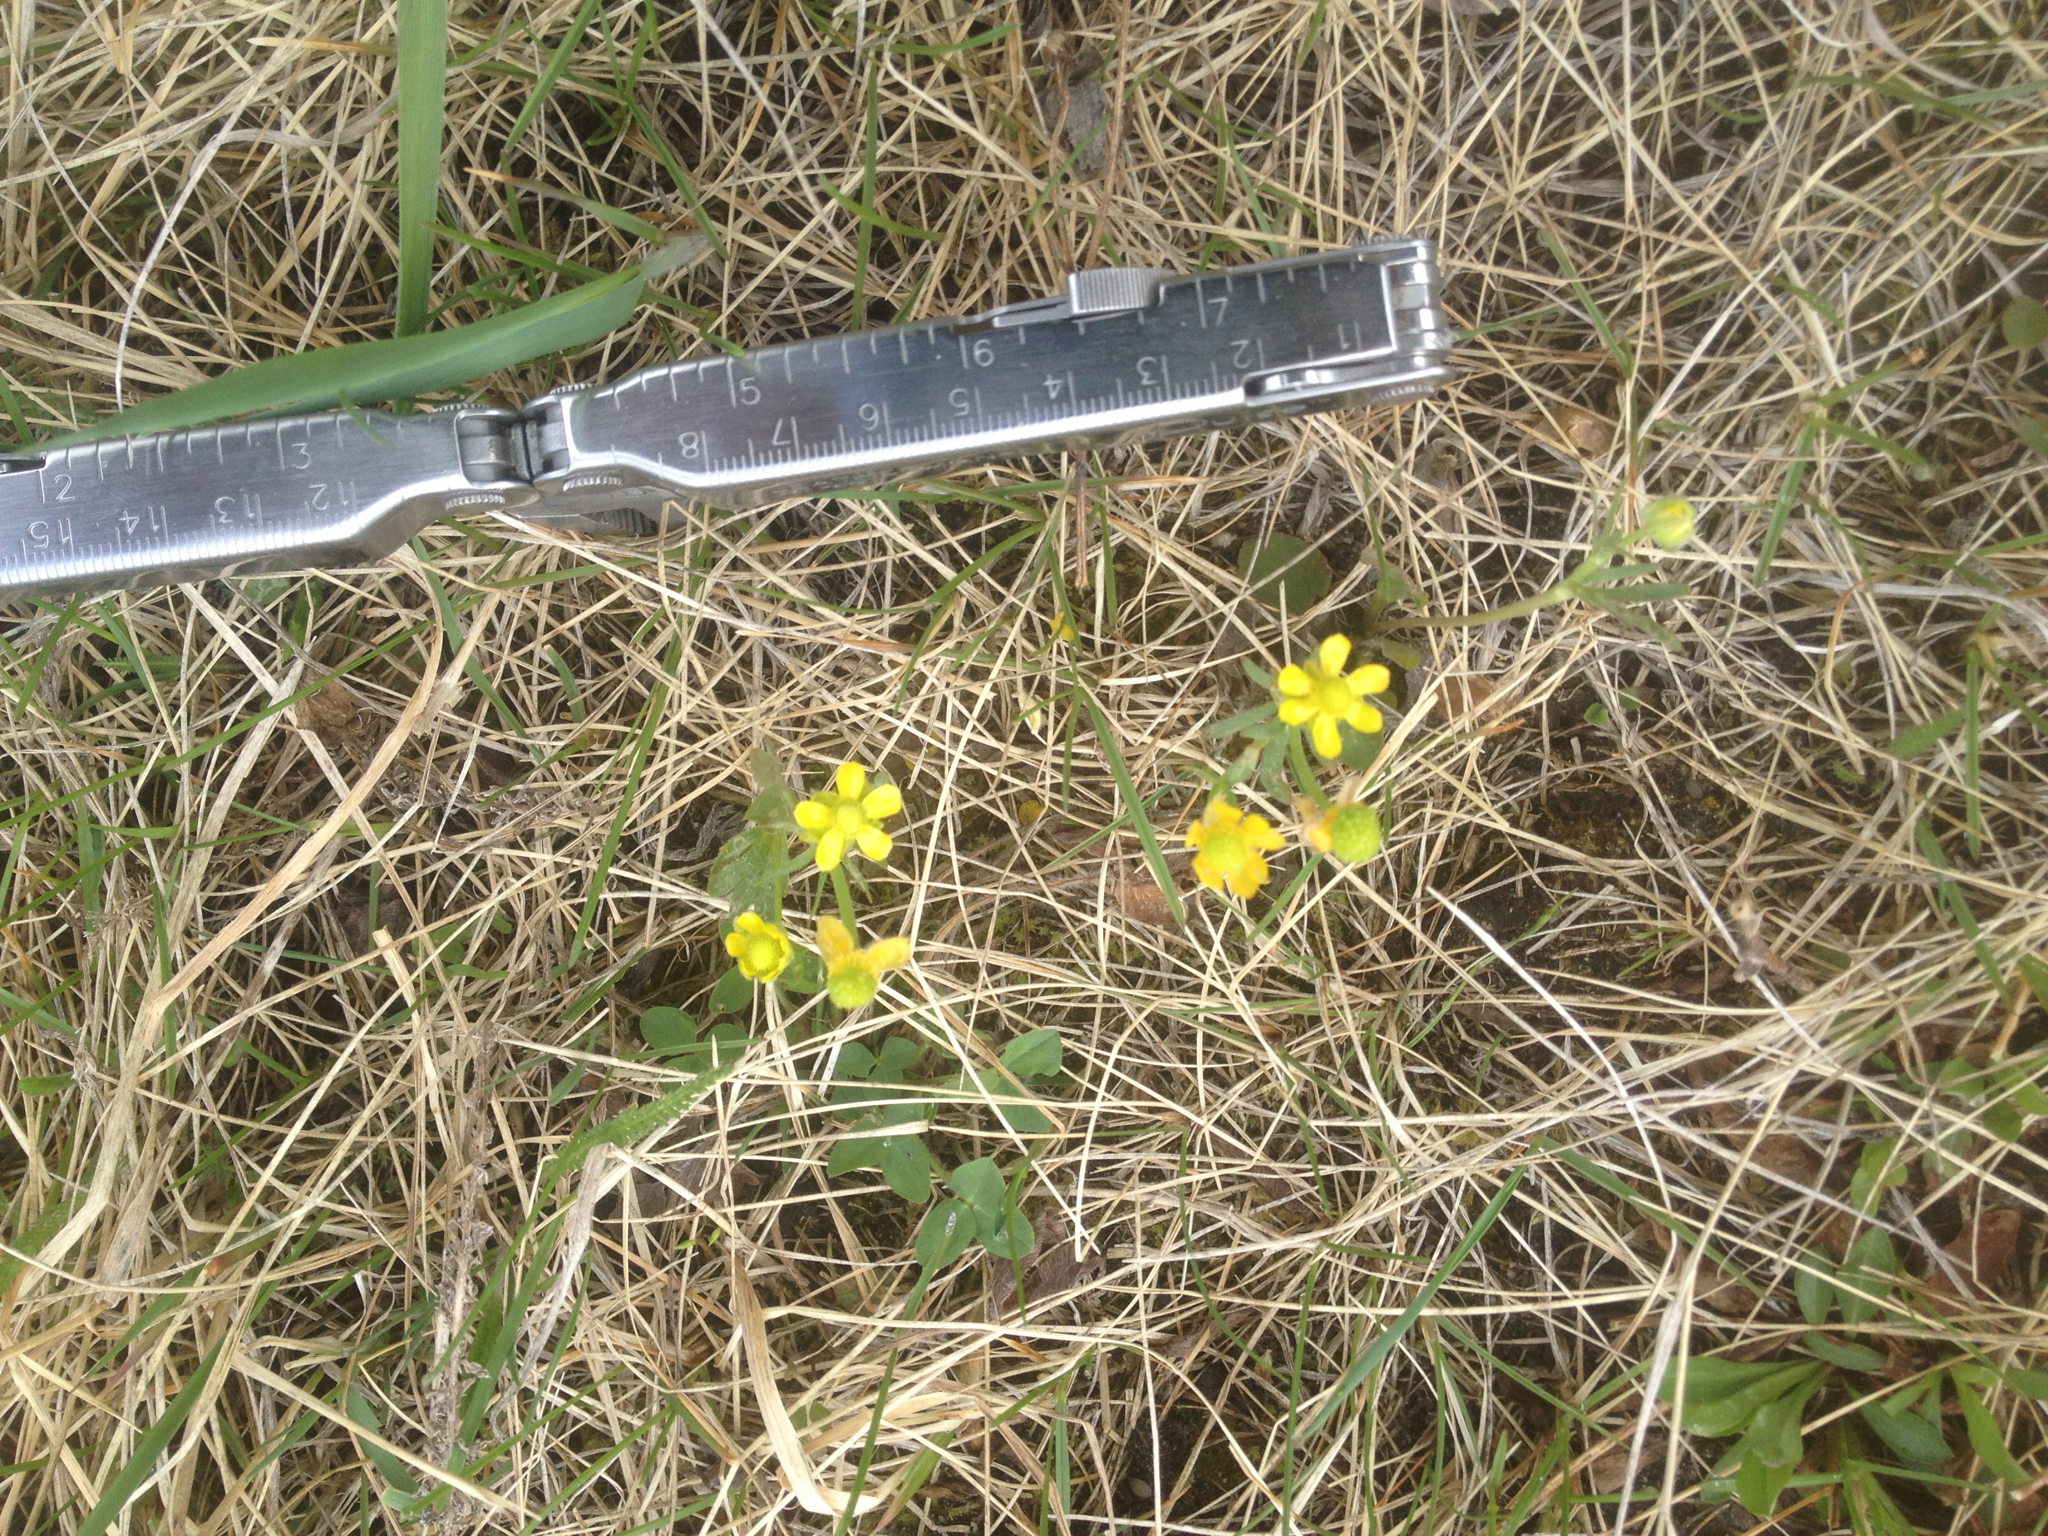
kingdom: Plantae
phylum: Tracheophyta
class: Magnoliopsida
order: Ranunculales
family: Ranunculaceae
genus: Ranunculus
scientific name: Ranunculus rhomboideus
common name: Prairie buttercup
